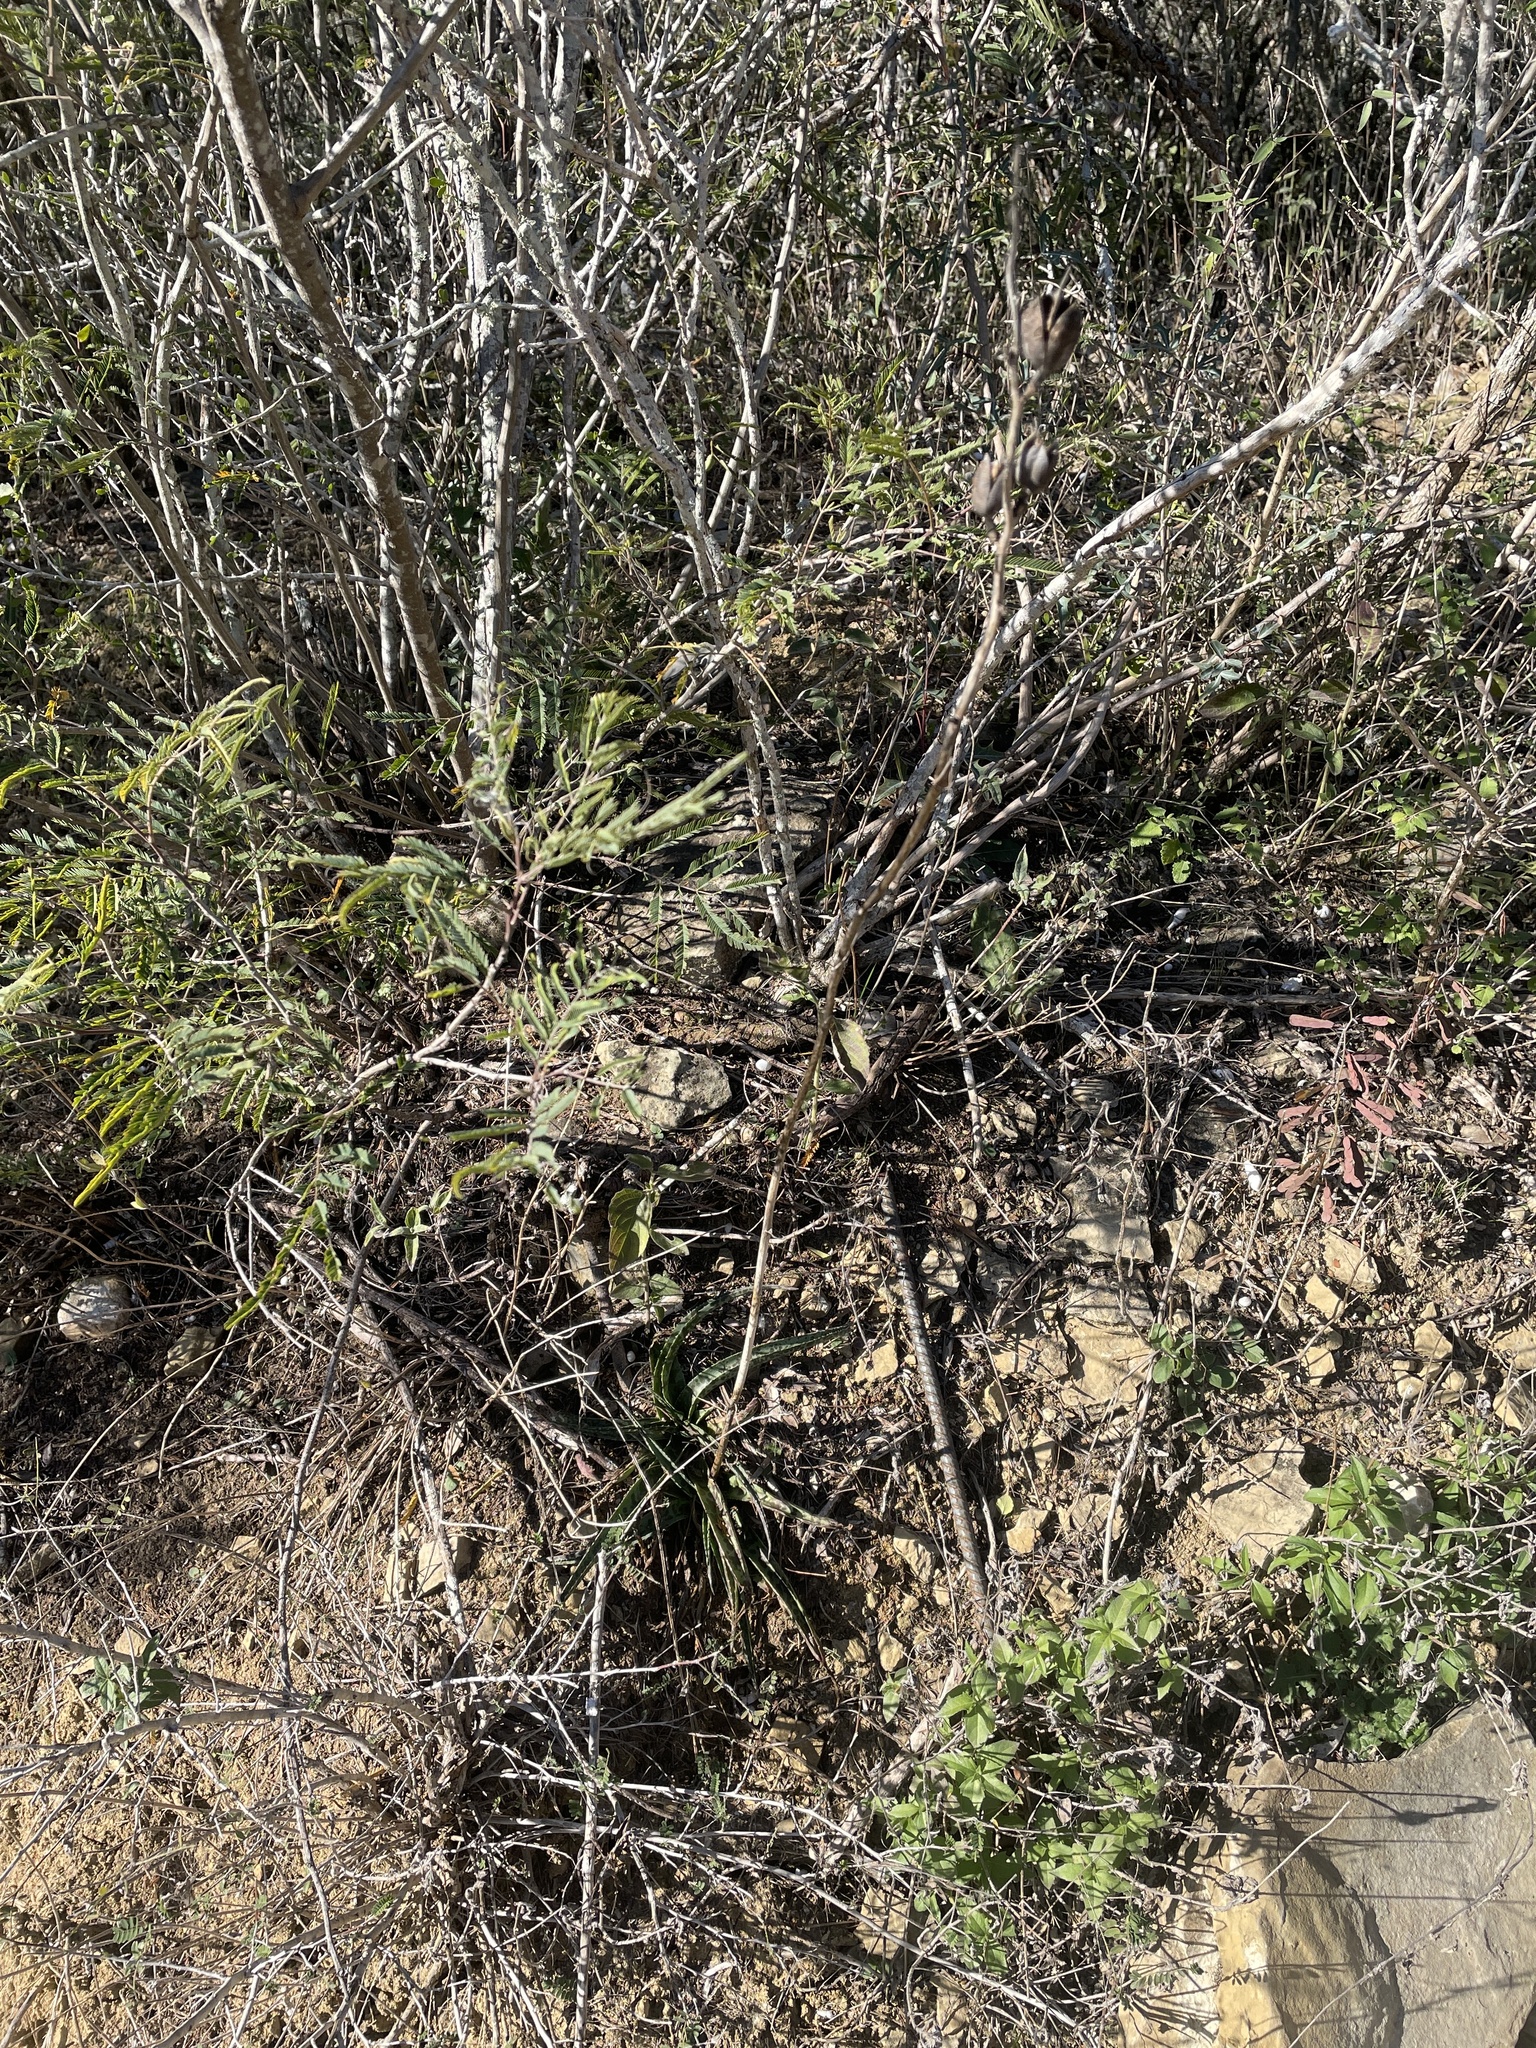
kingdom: Plantae
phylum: Tracheophyta
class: Liliopsida
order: Asparagales
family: Asparagaceae
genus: Agave
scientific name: Agave maculata
